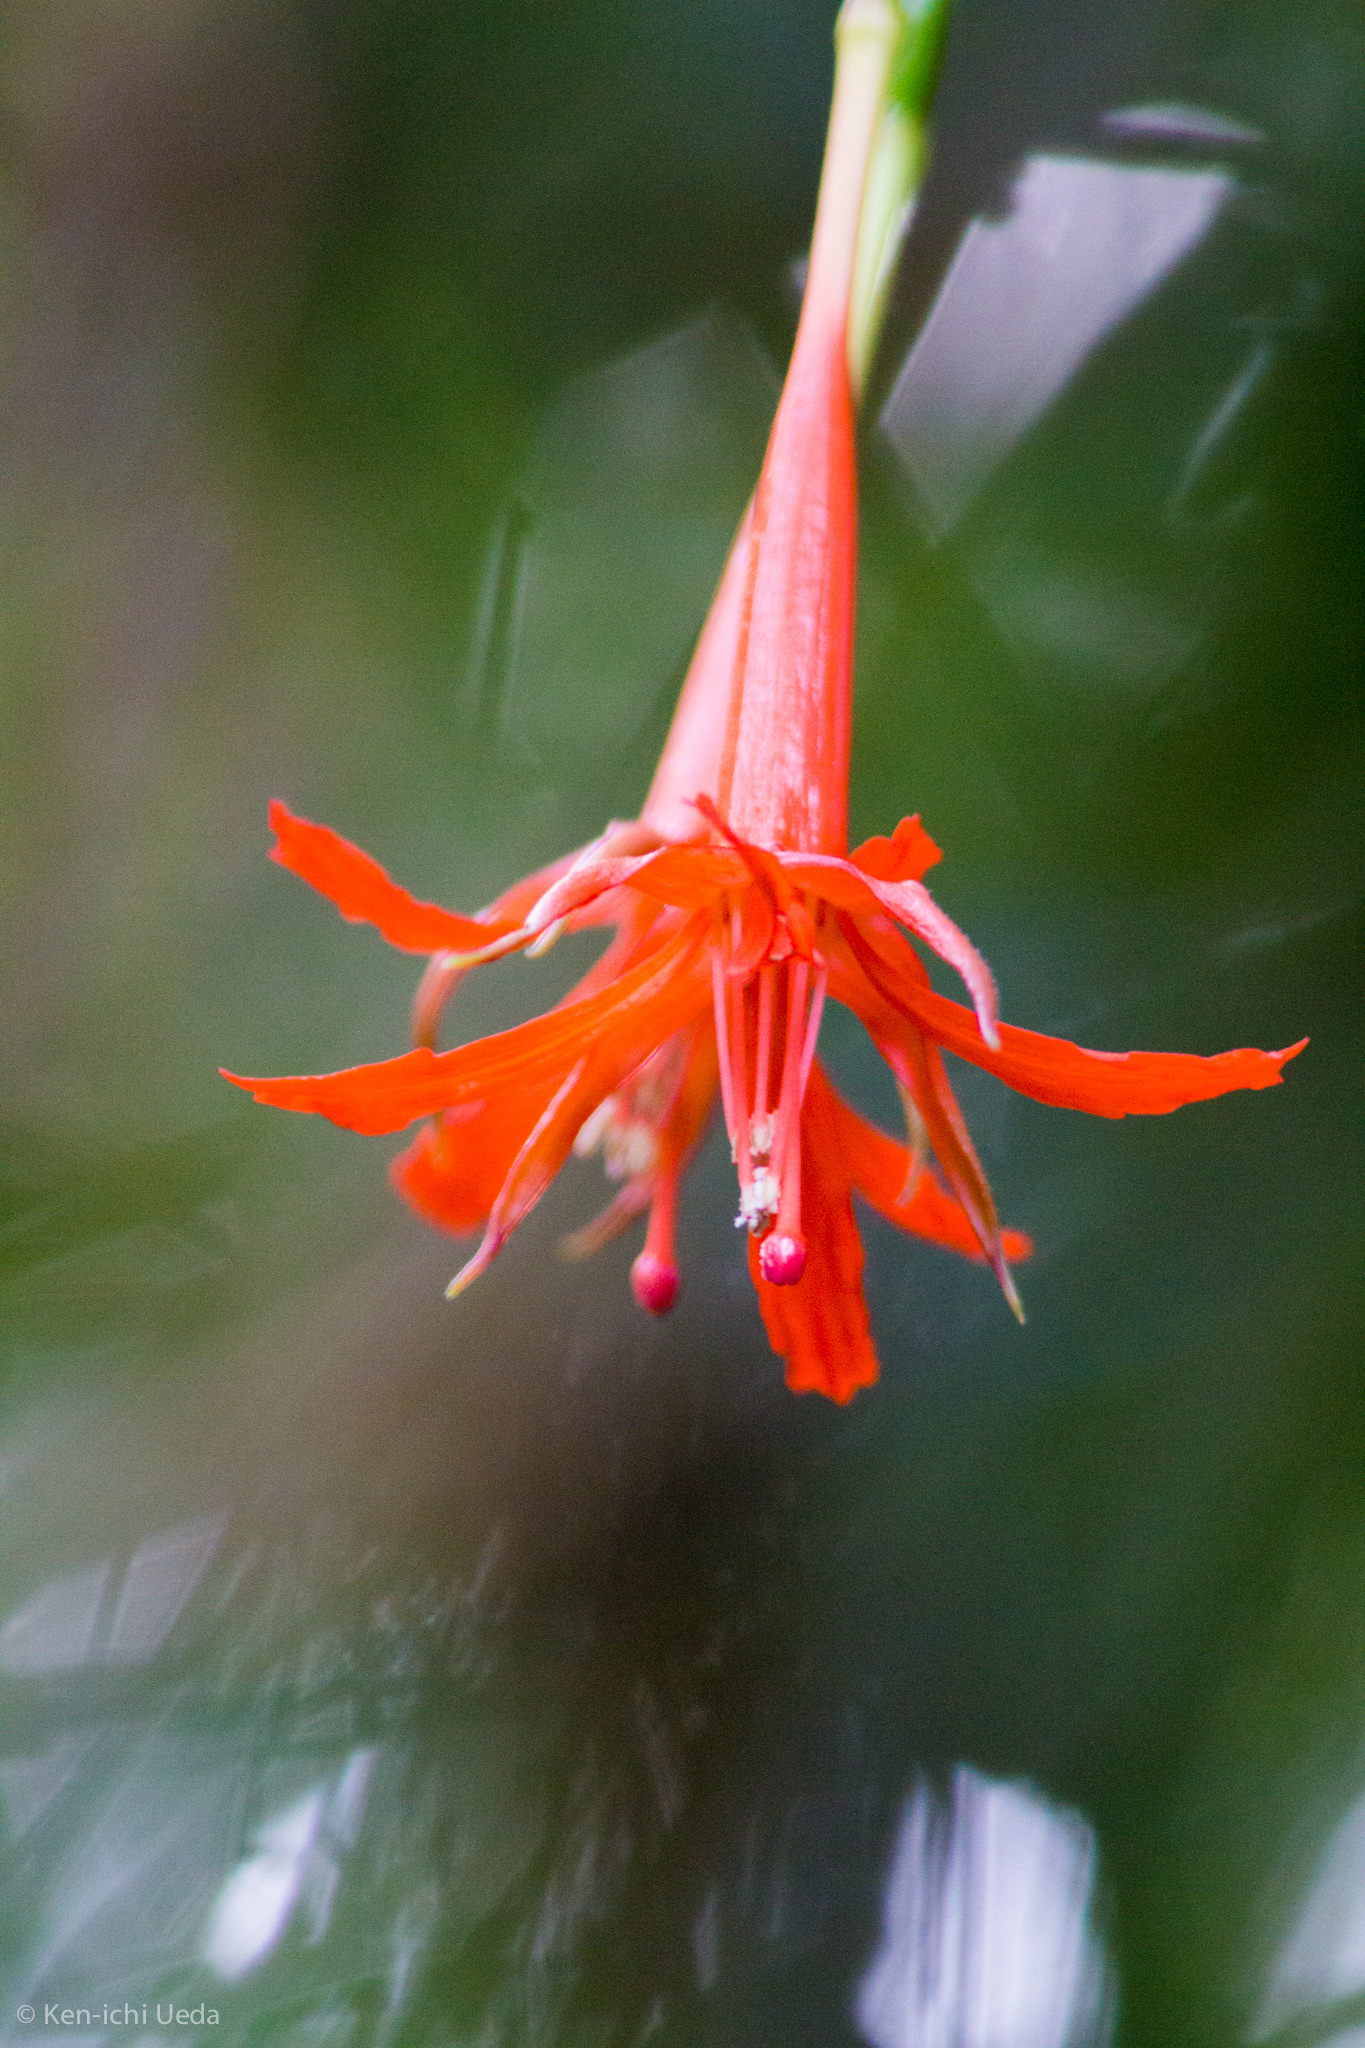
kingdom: Plantae
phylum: Tracheophyta
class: Magnoliopsida
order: Myrtales
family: Onagraceae
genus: Fuchsia
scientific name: Fuchsia venusta
